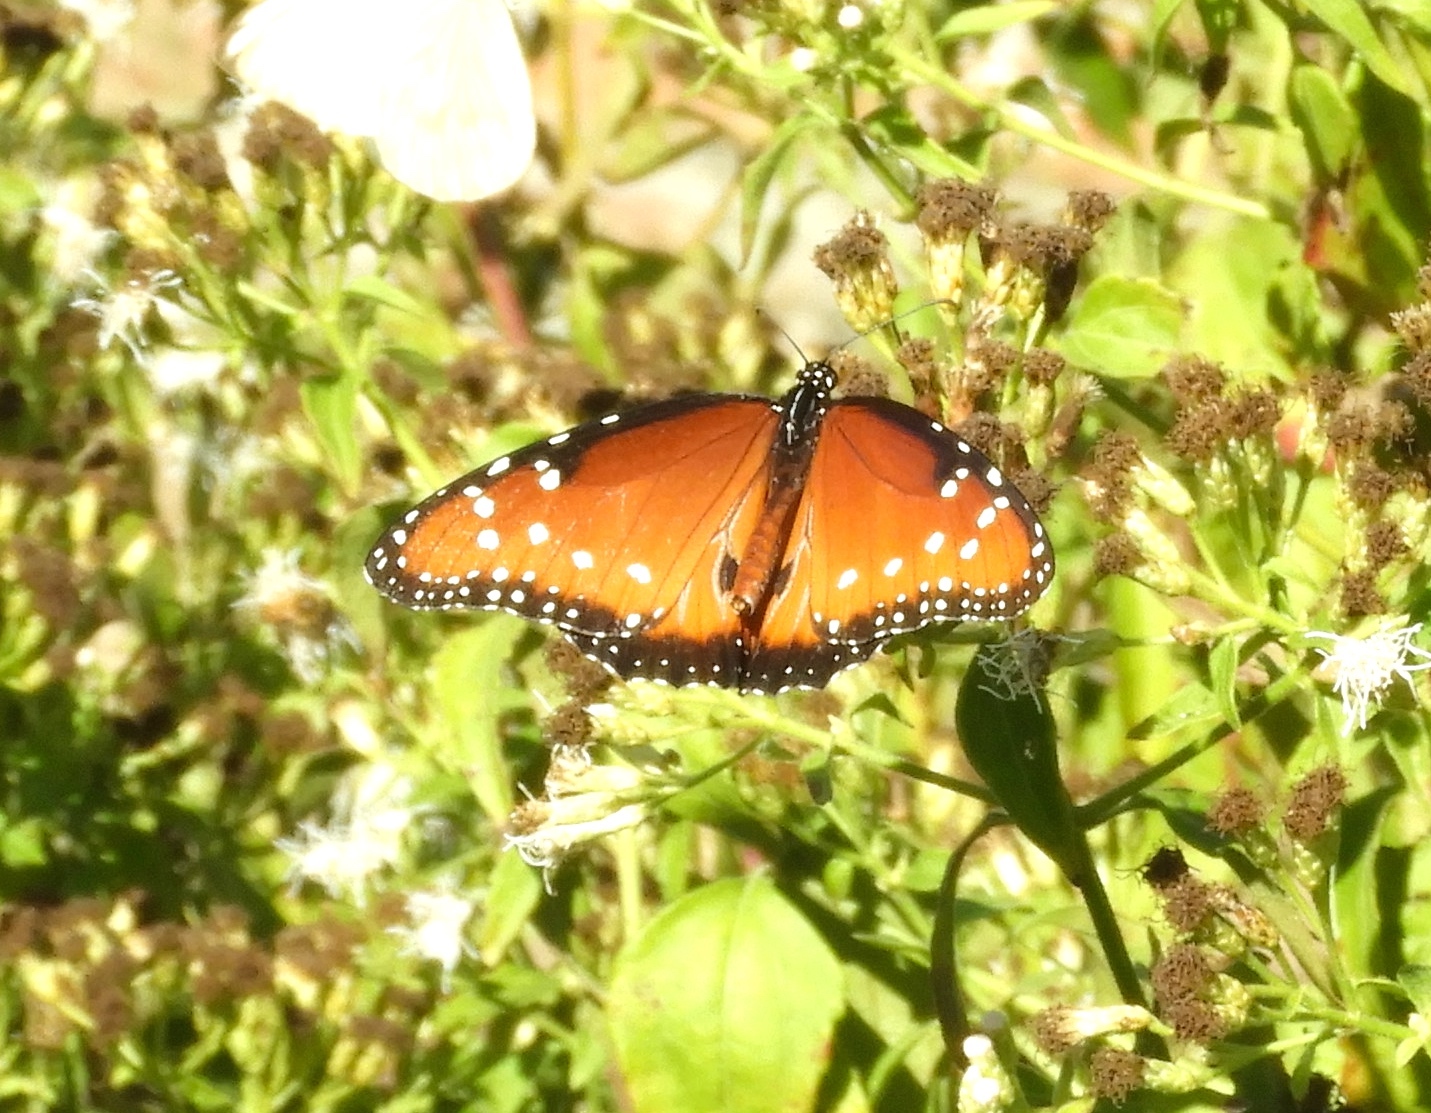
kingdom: Animalia
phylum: Arthropoda
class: Insecta
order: Lepidoptera
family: Nymphalidae
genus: Danaus
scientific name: Danaus gilippus
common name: Queen
